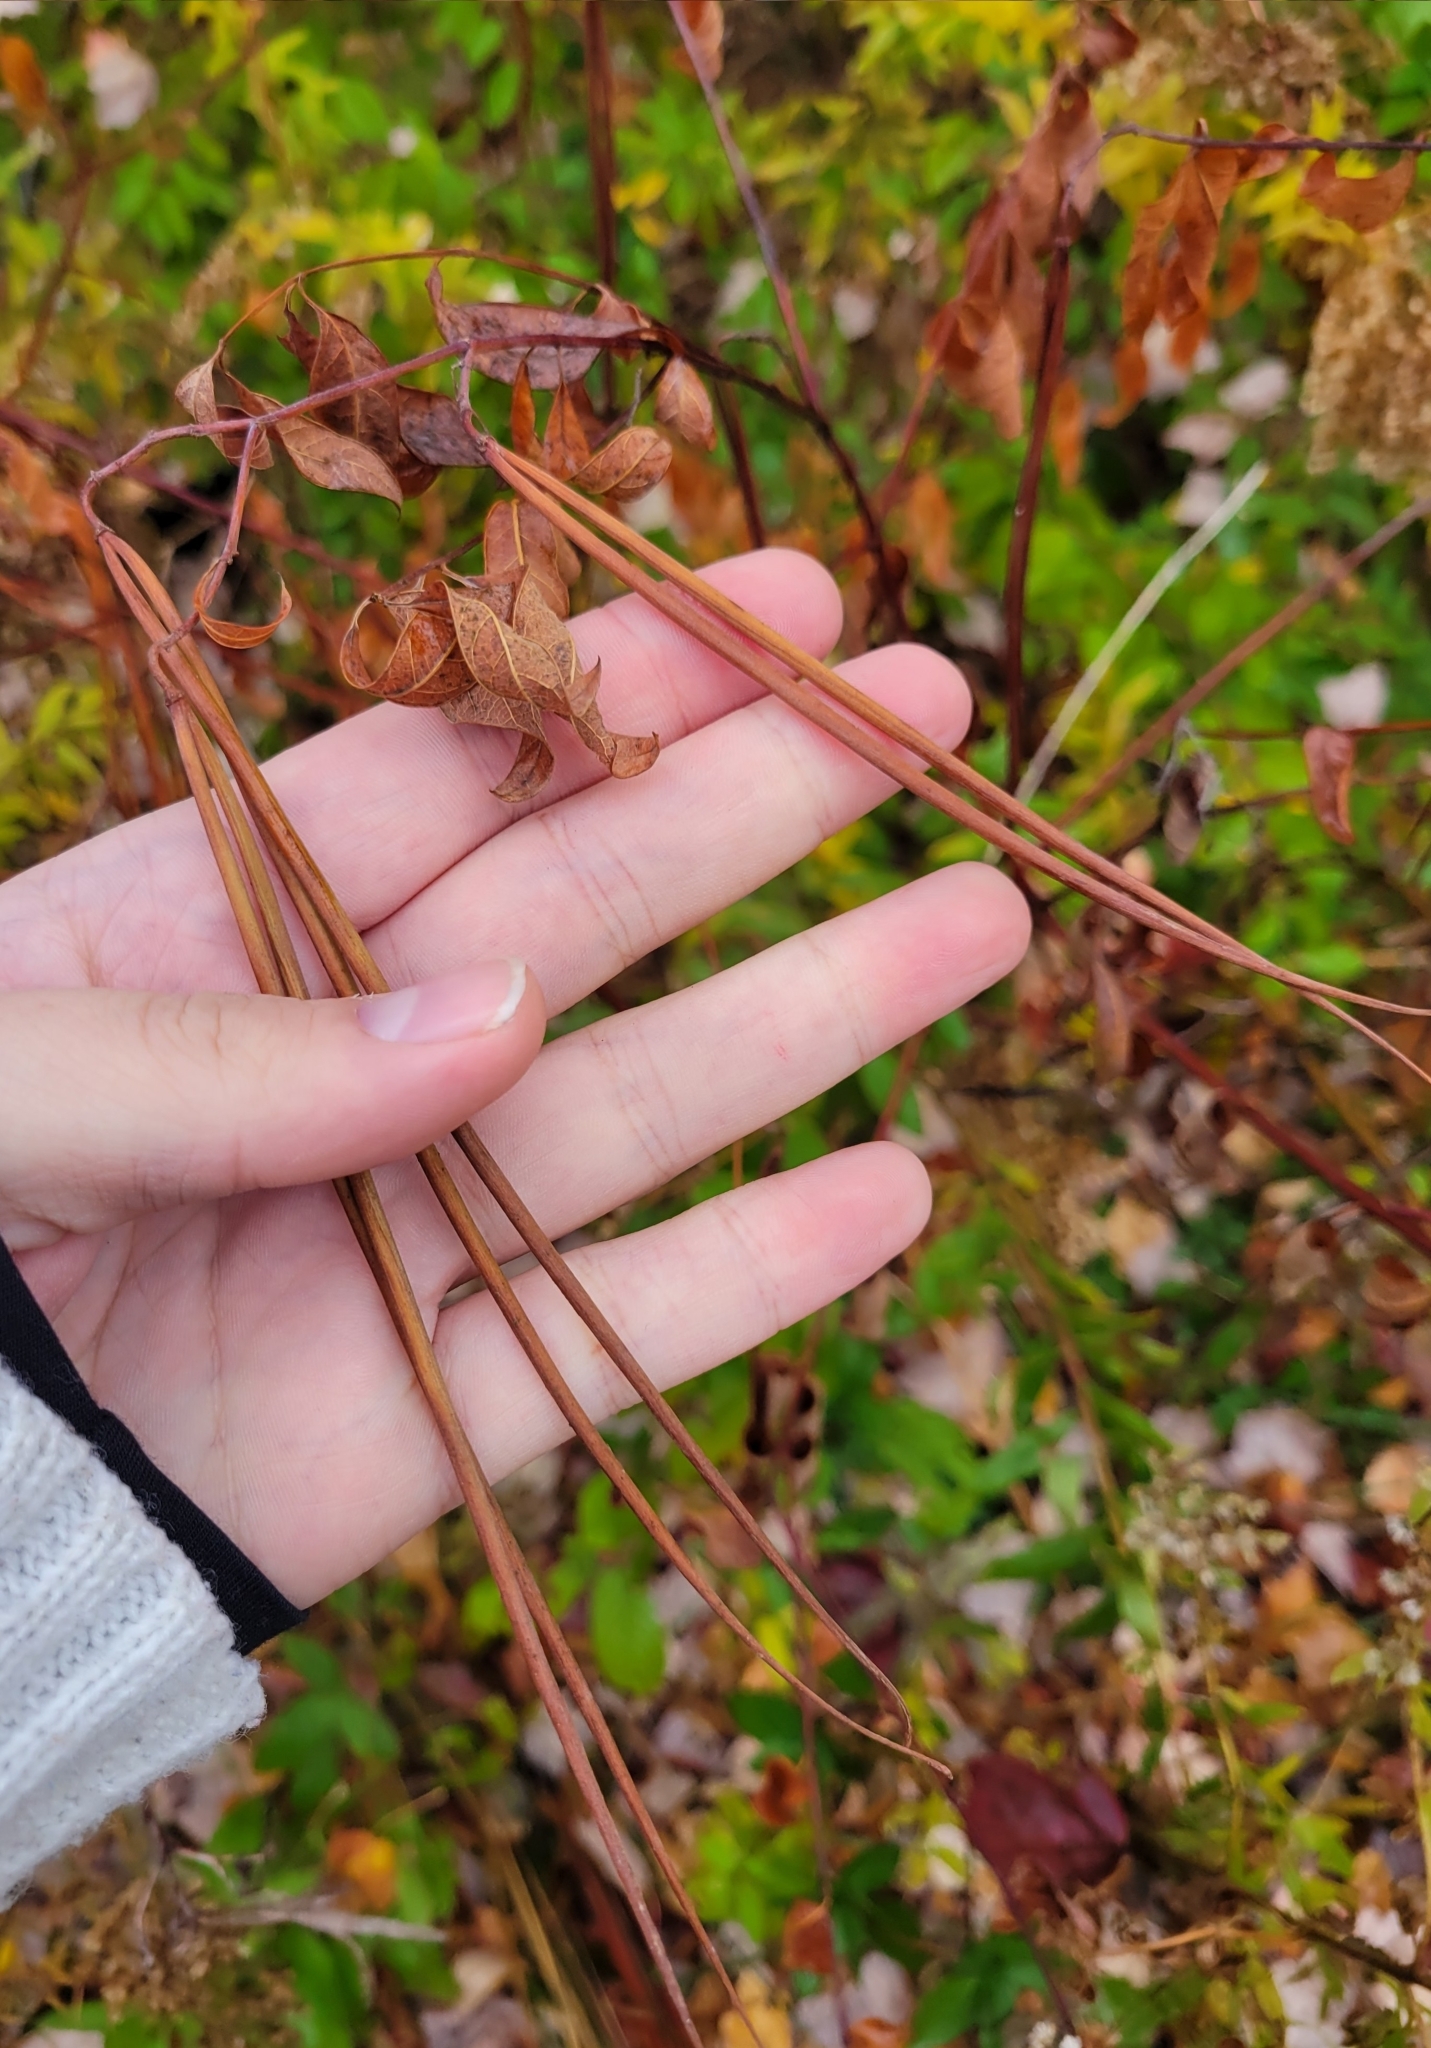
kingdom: Plantae
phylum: Tracheophyta
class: Magnoliopsida
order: Gentianales
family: Apocynaceae
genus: Apocynum
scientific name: Apocynum cannabinum
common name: Hemp dogbane
